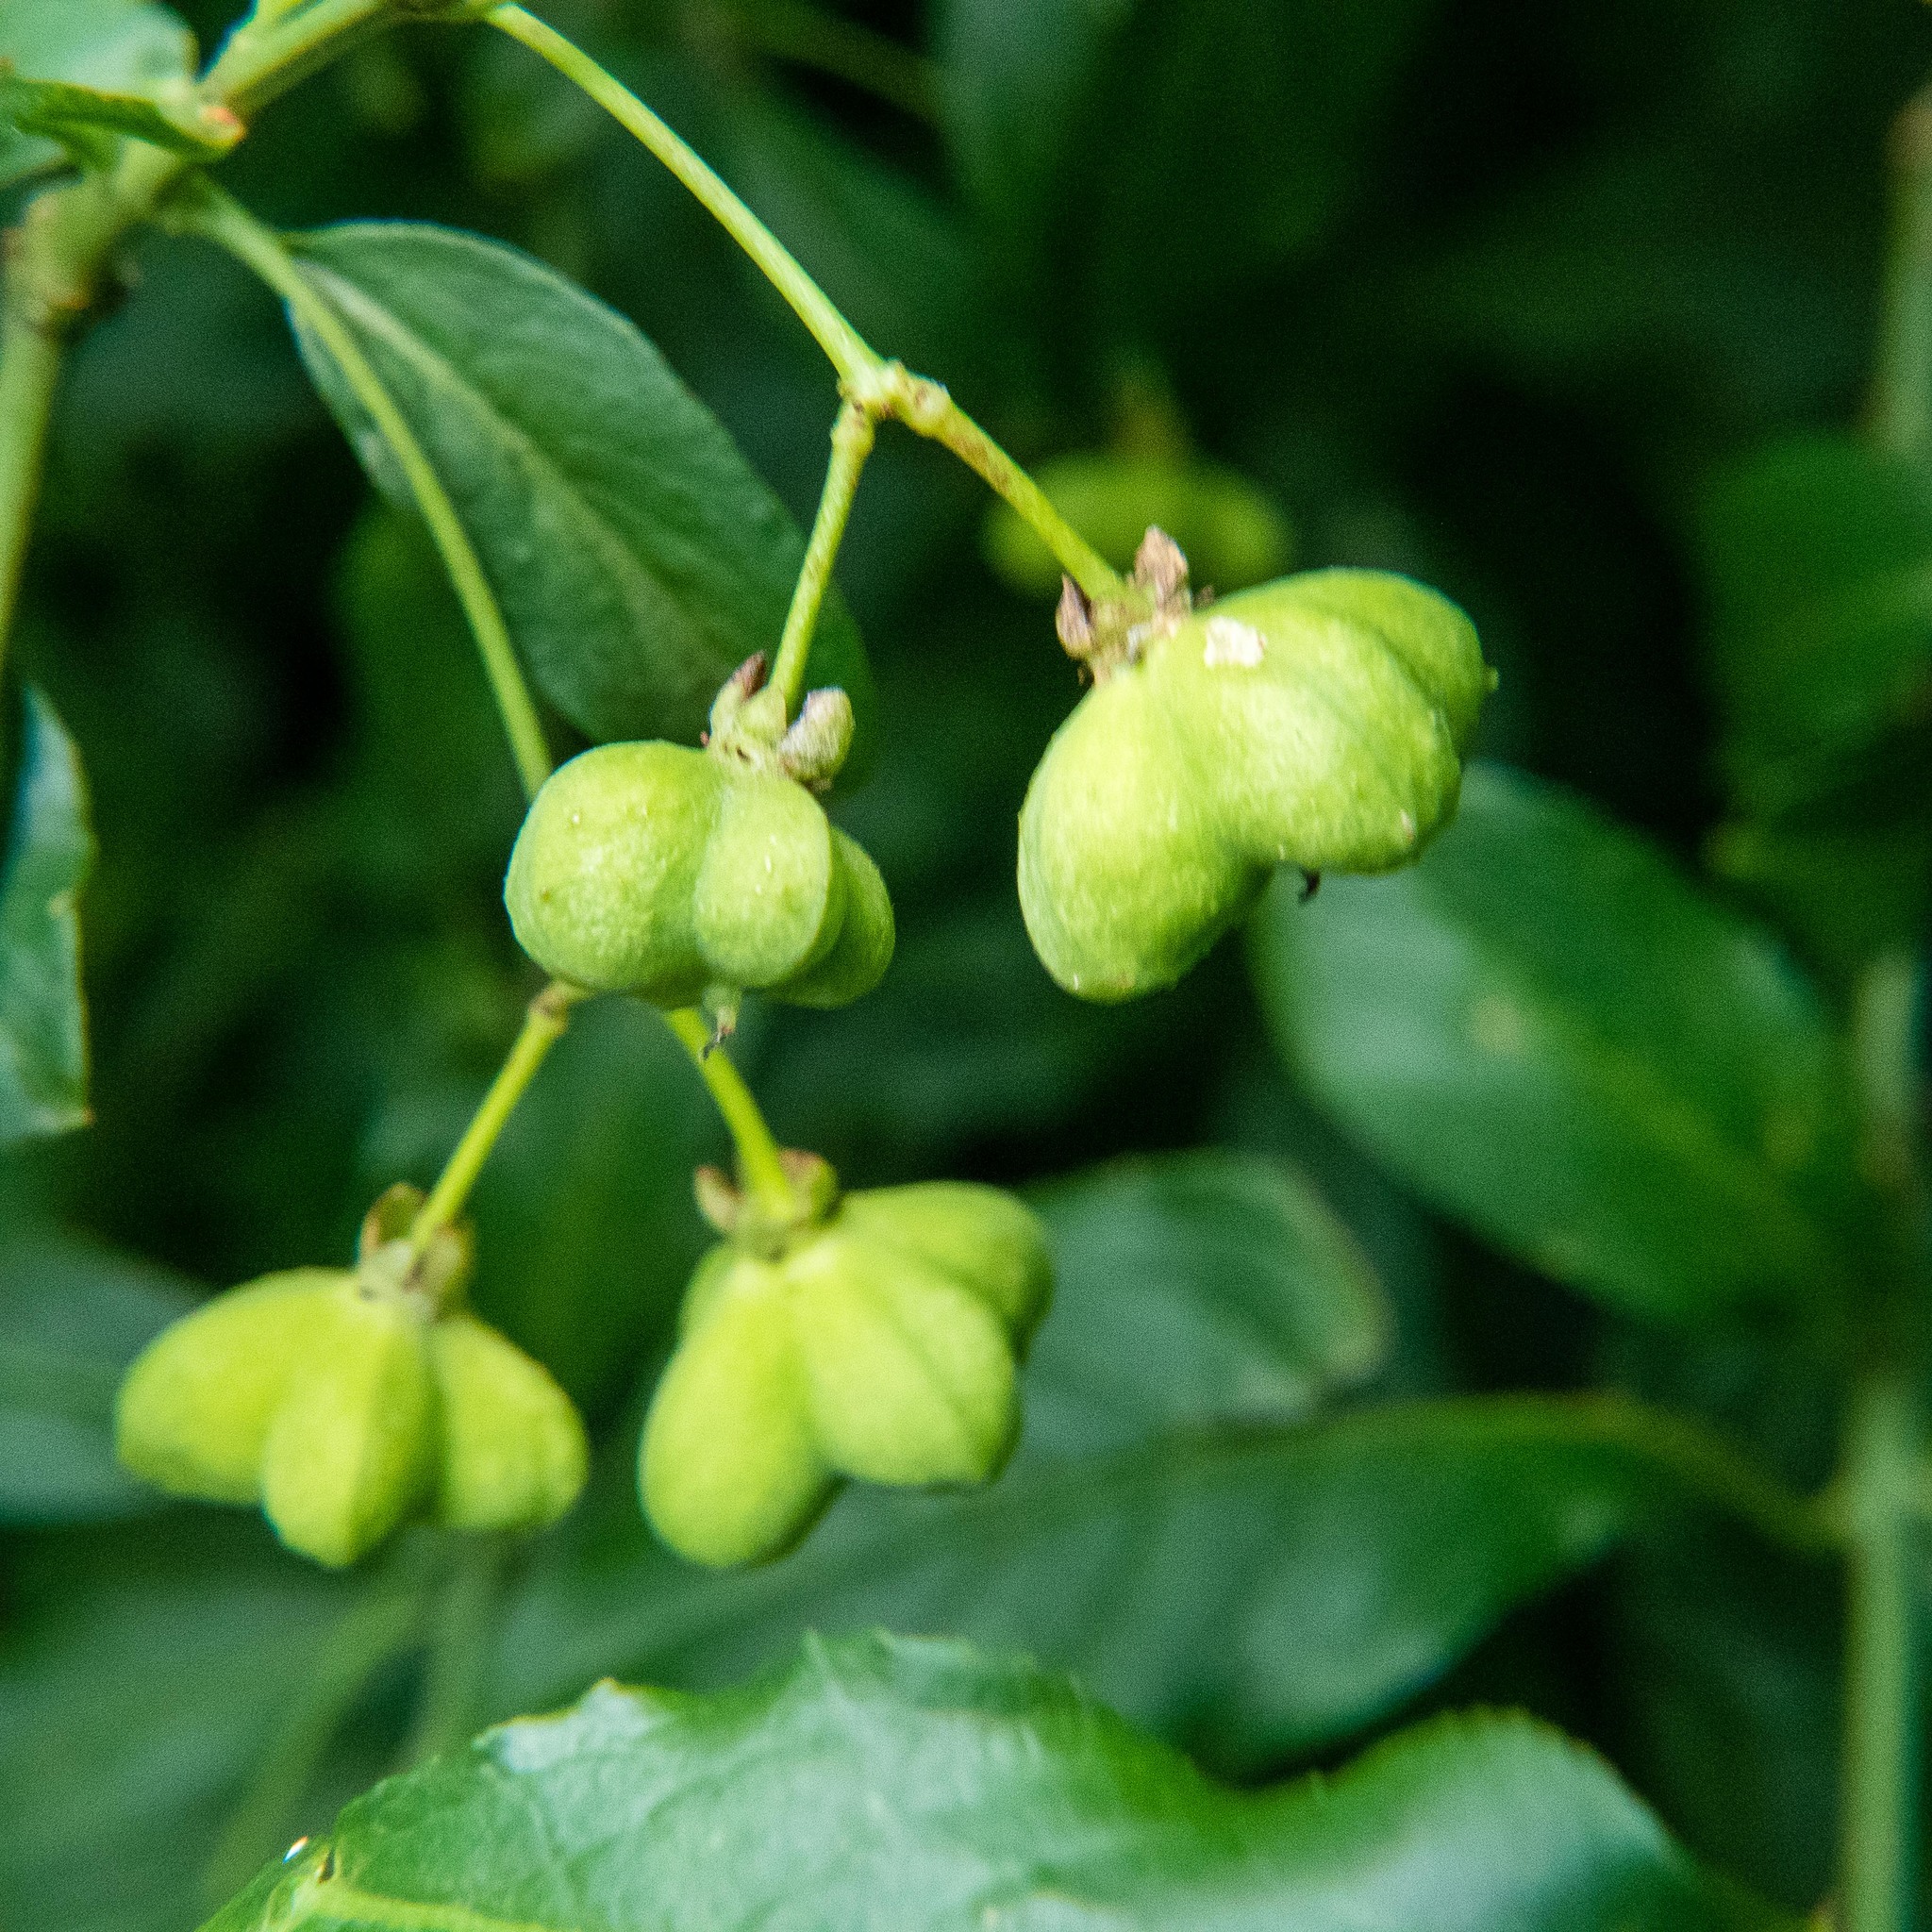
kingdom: Plantae
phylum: Tracheophyta
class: Magnoliopsida
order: Celastrales
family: Celastraceae
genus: Euonymus
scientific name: Euonymus europaeus
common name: Spindle
